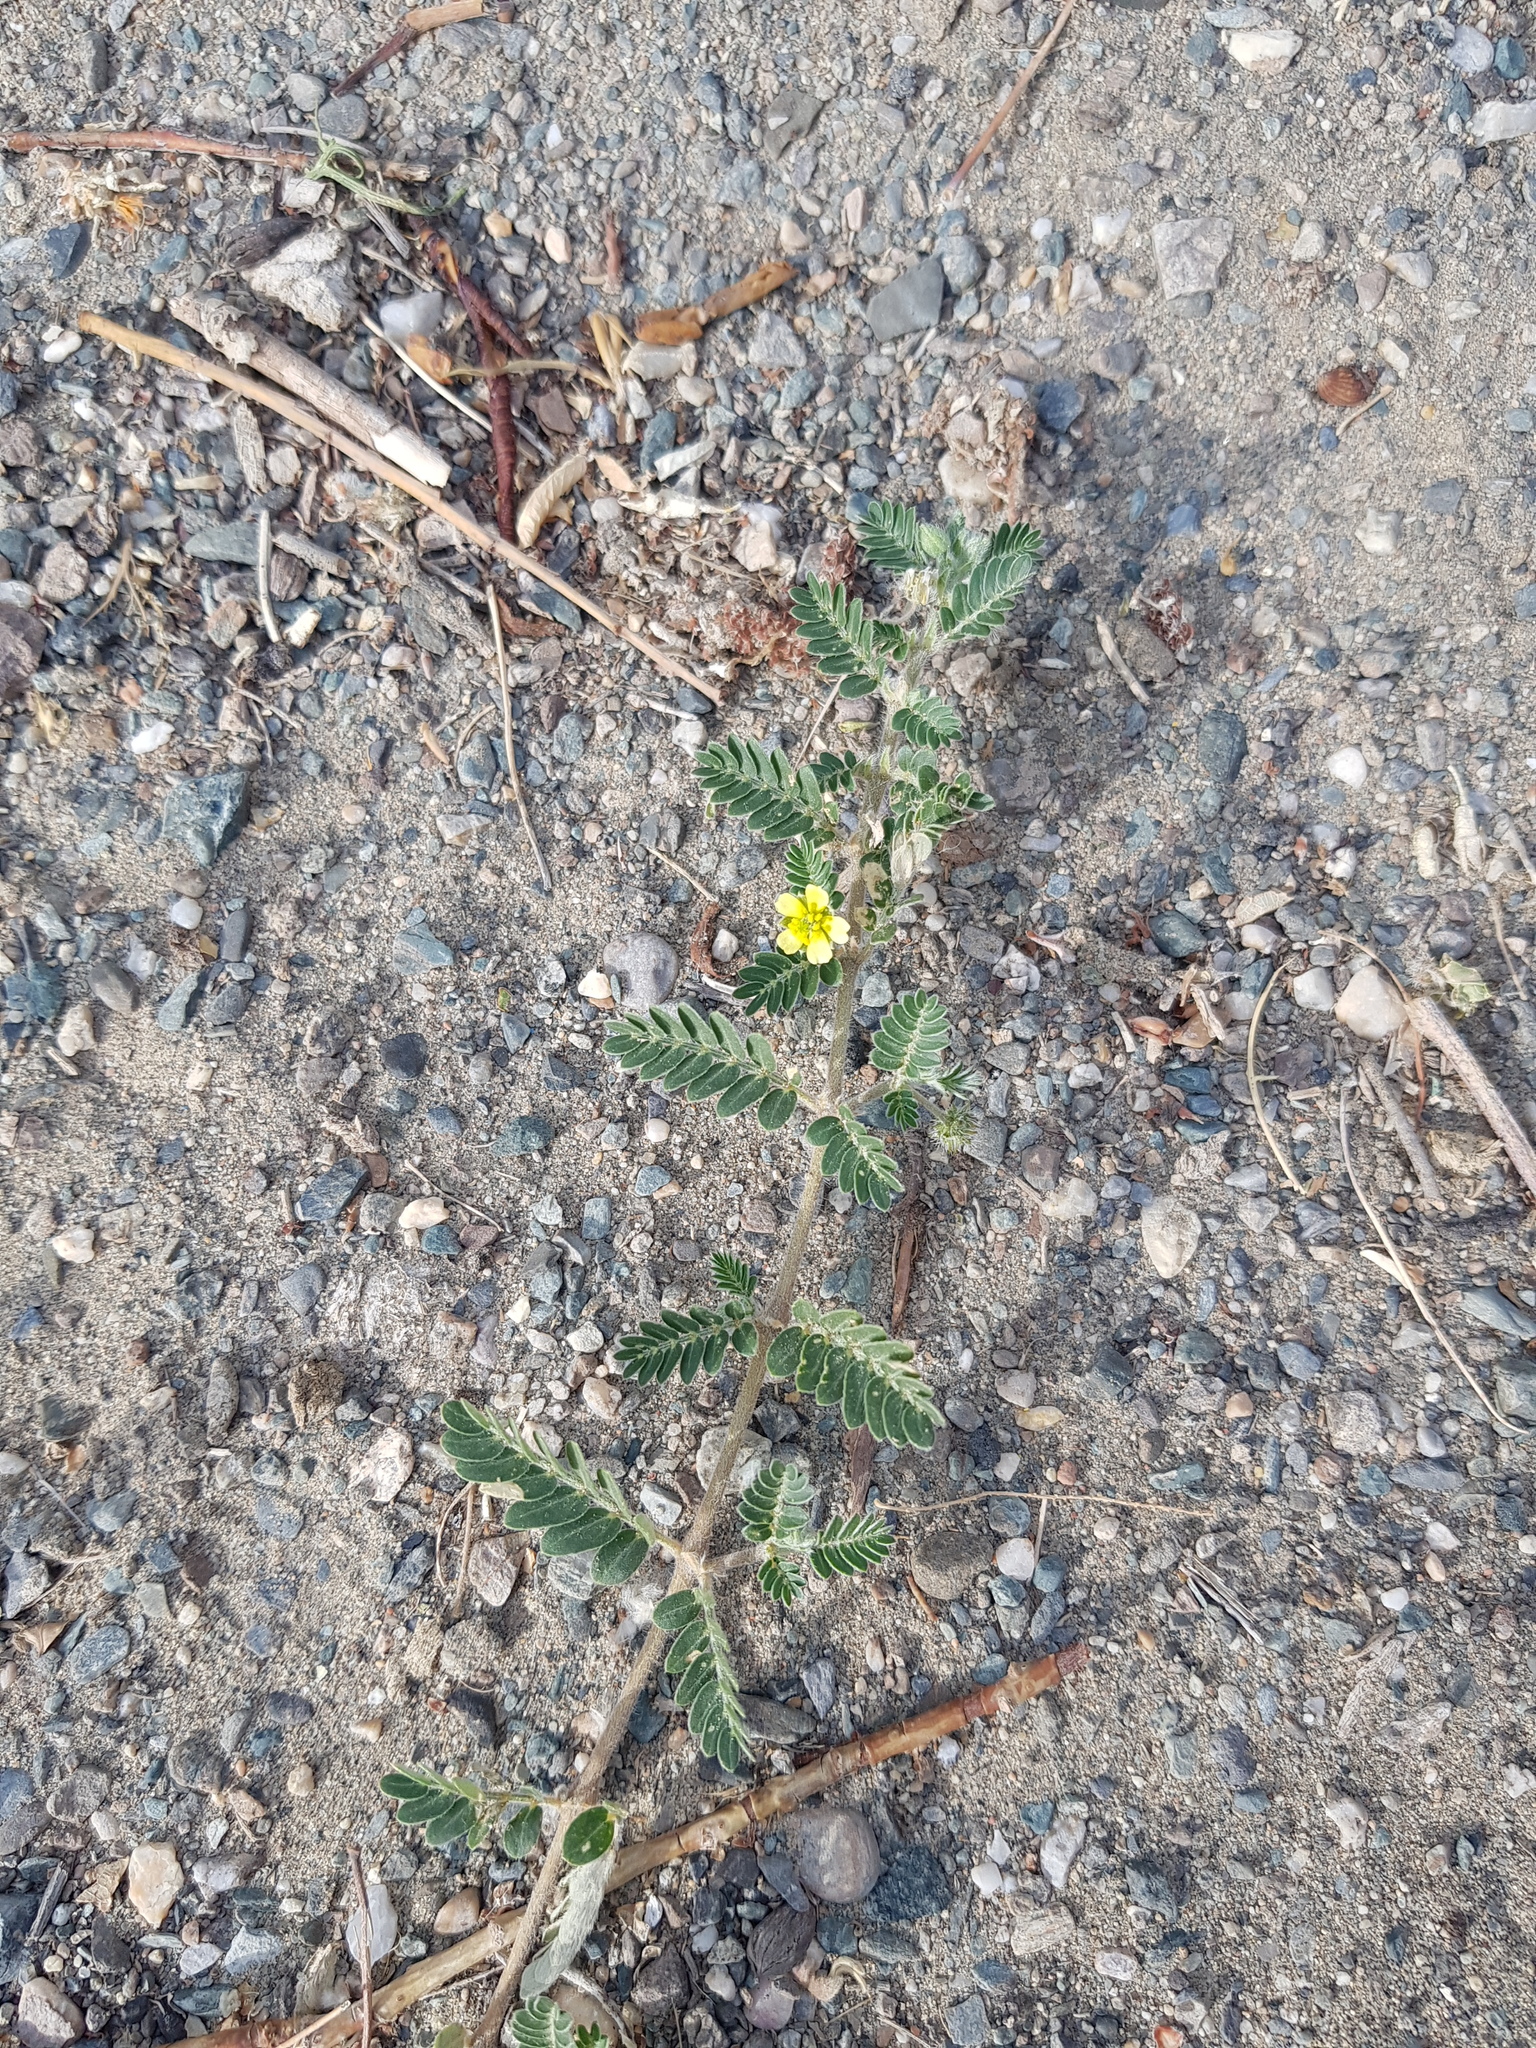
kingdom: Plantae
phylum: Tracheophyta
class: Magnoliopsida
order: Zygophyllales
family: Zygophyllaceae
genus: Tribulus
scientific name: Tribulus terrestris
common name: Puncturevine
